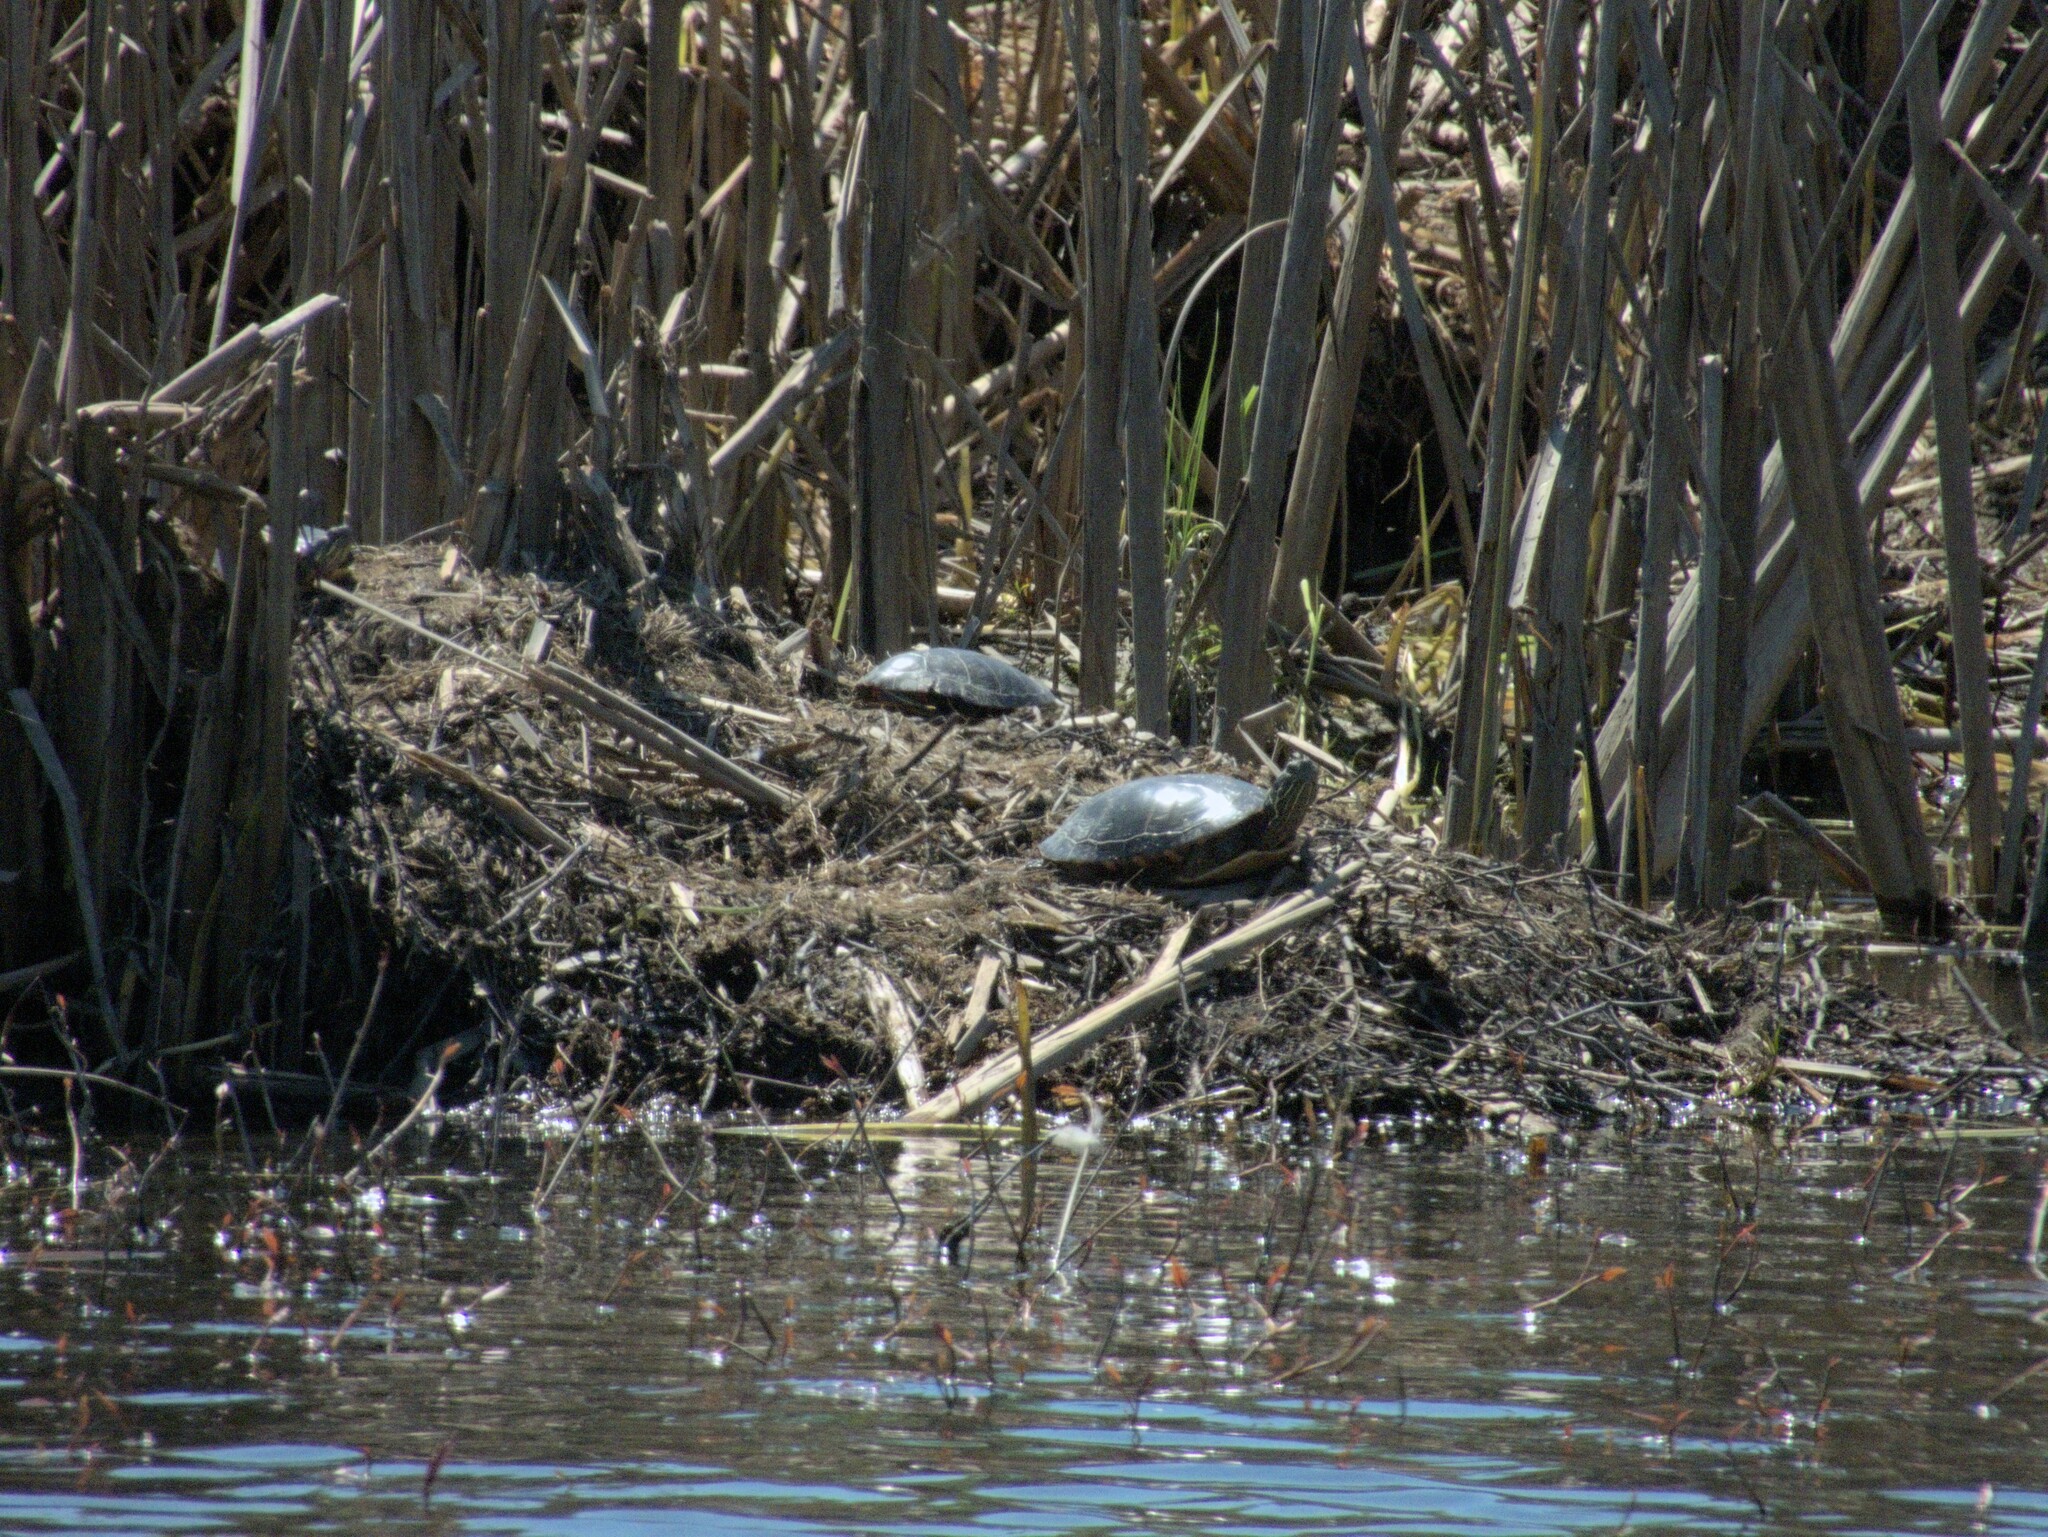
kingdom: Animalia
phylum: Chordata
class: Testudines
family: Emydidae
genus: Chrysemys
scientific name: Chrysemys picta
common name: Painted turtle
